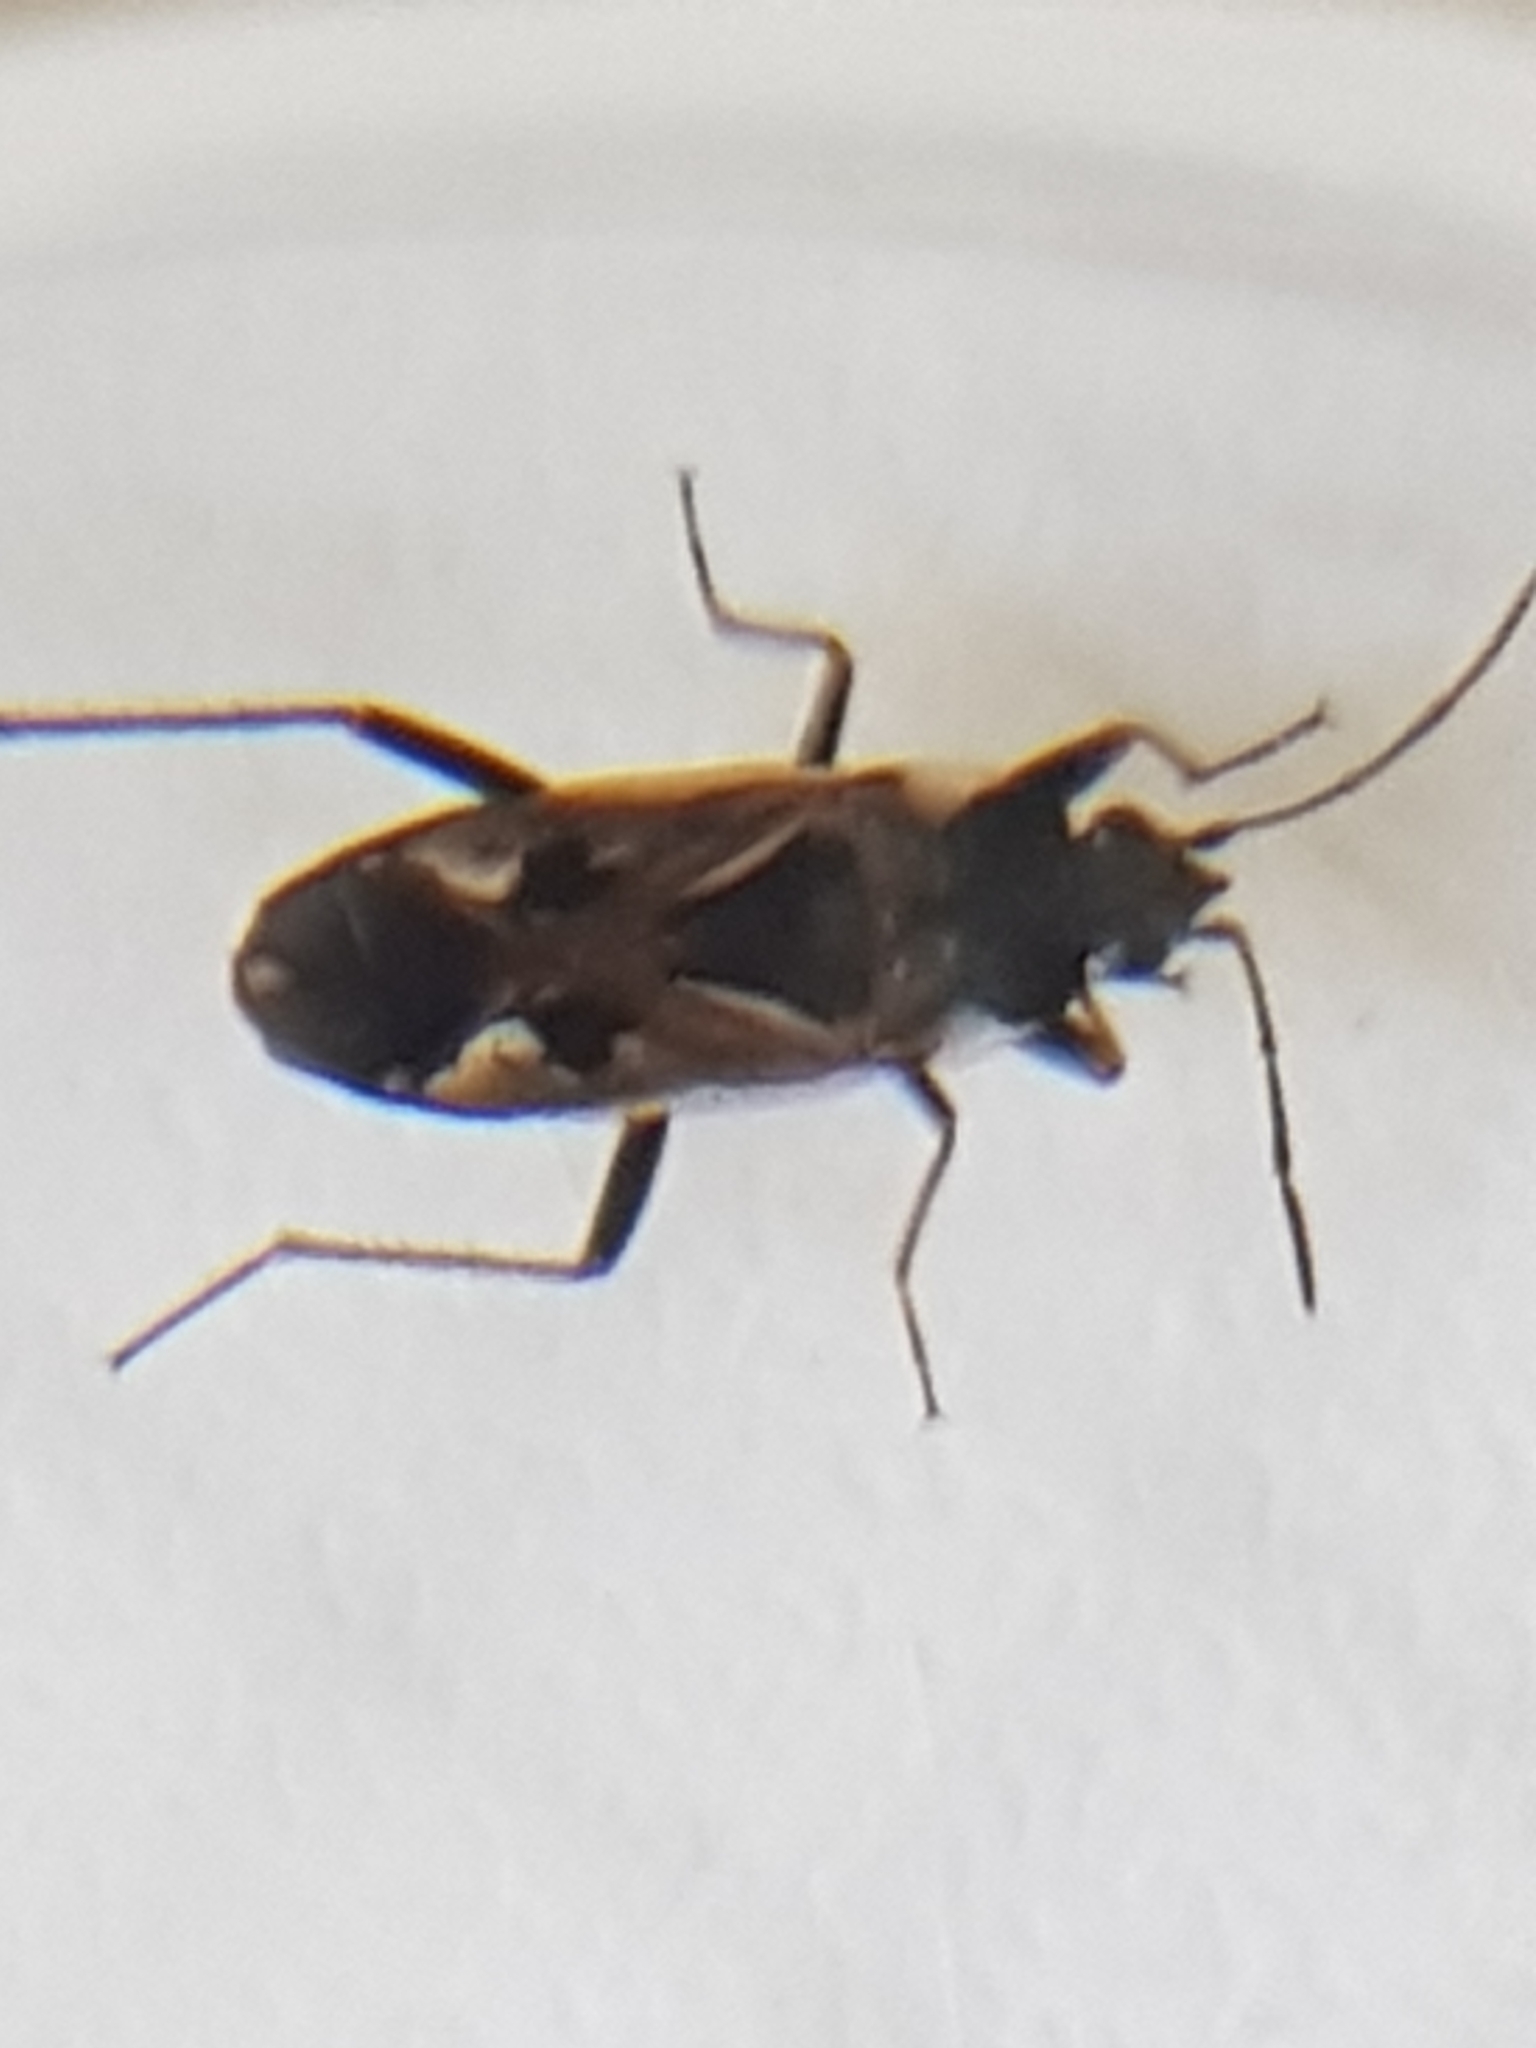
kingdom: Animalia
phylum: Arthropoda
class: Insecta
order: Hemiptera
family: Rhyparochromidae
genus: Rhyparochromus
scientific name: Rhyparochromus vulgaris
